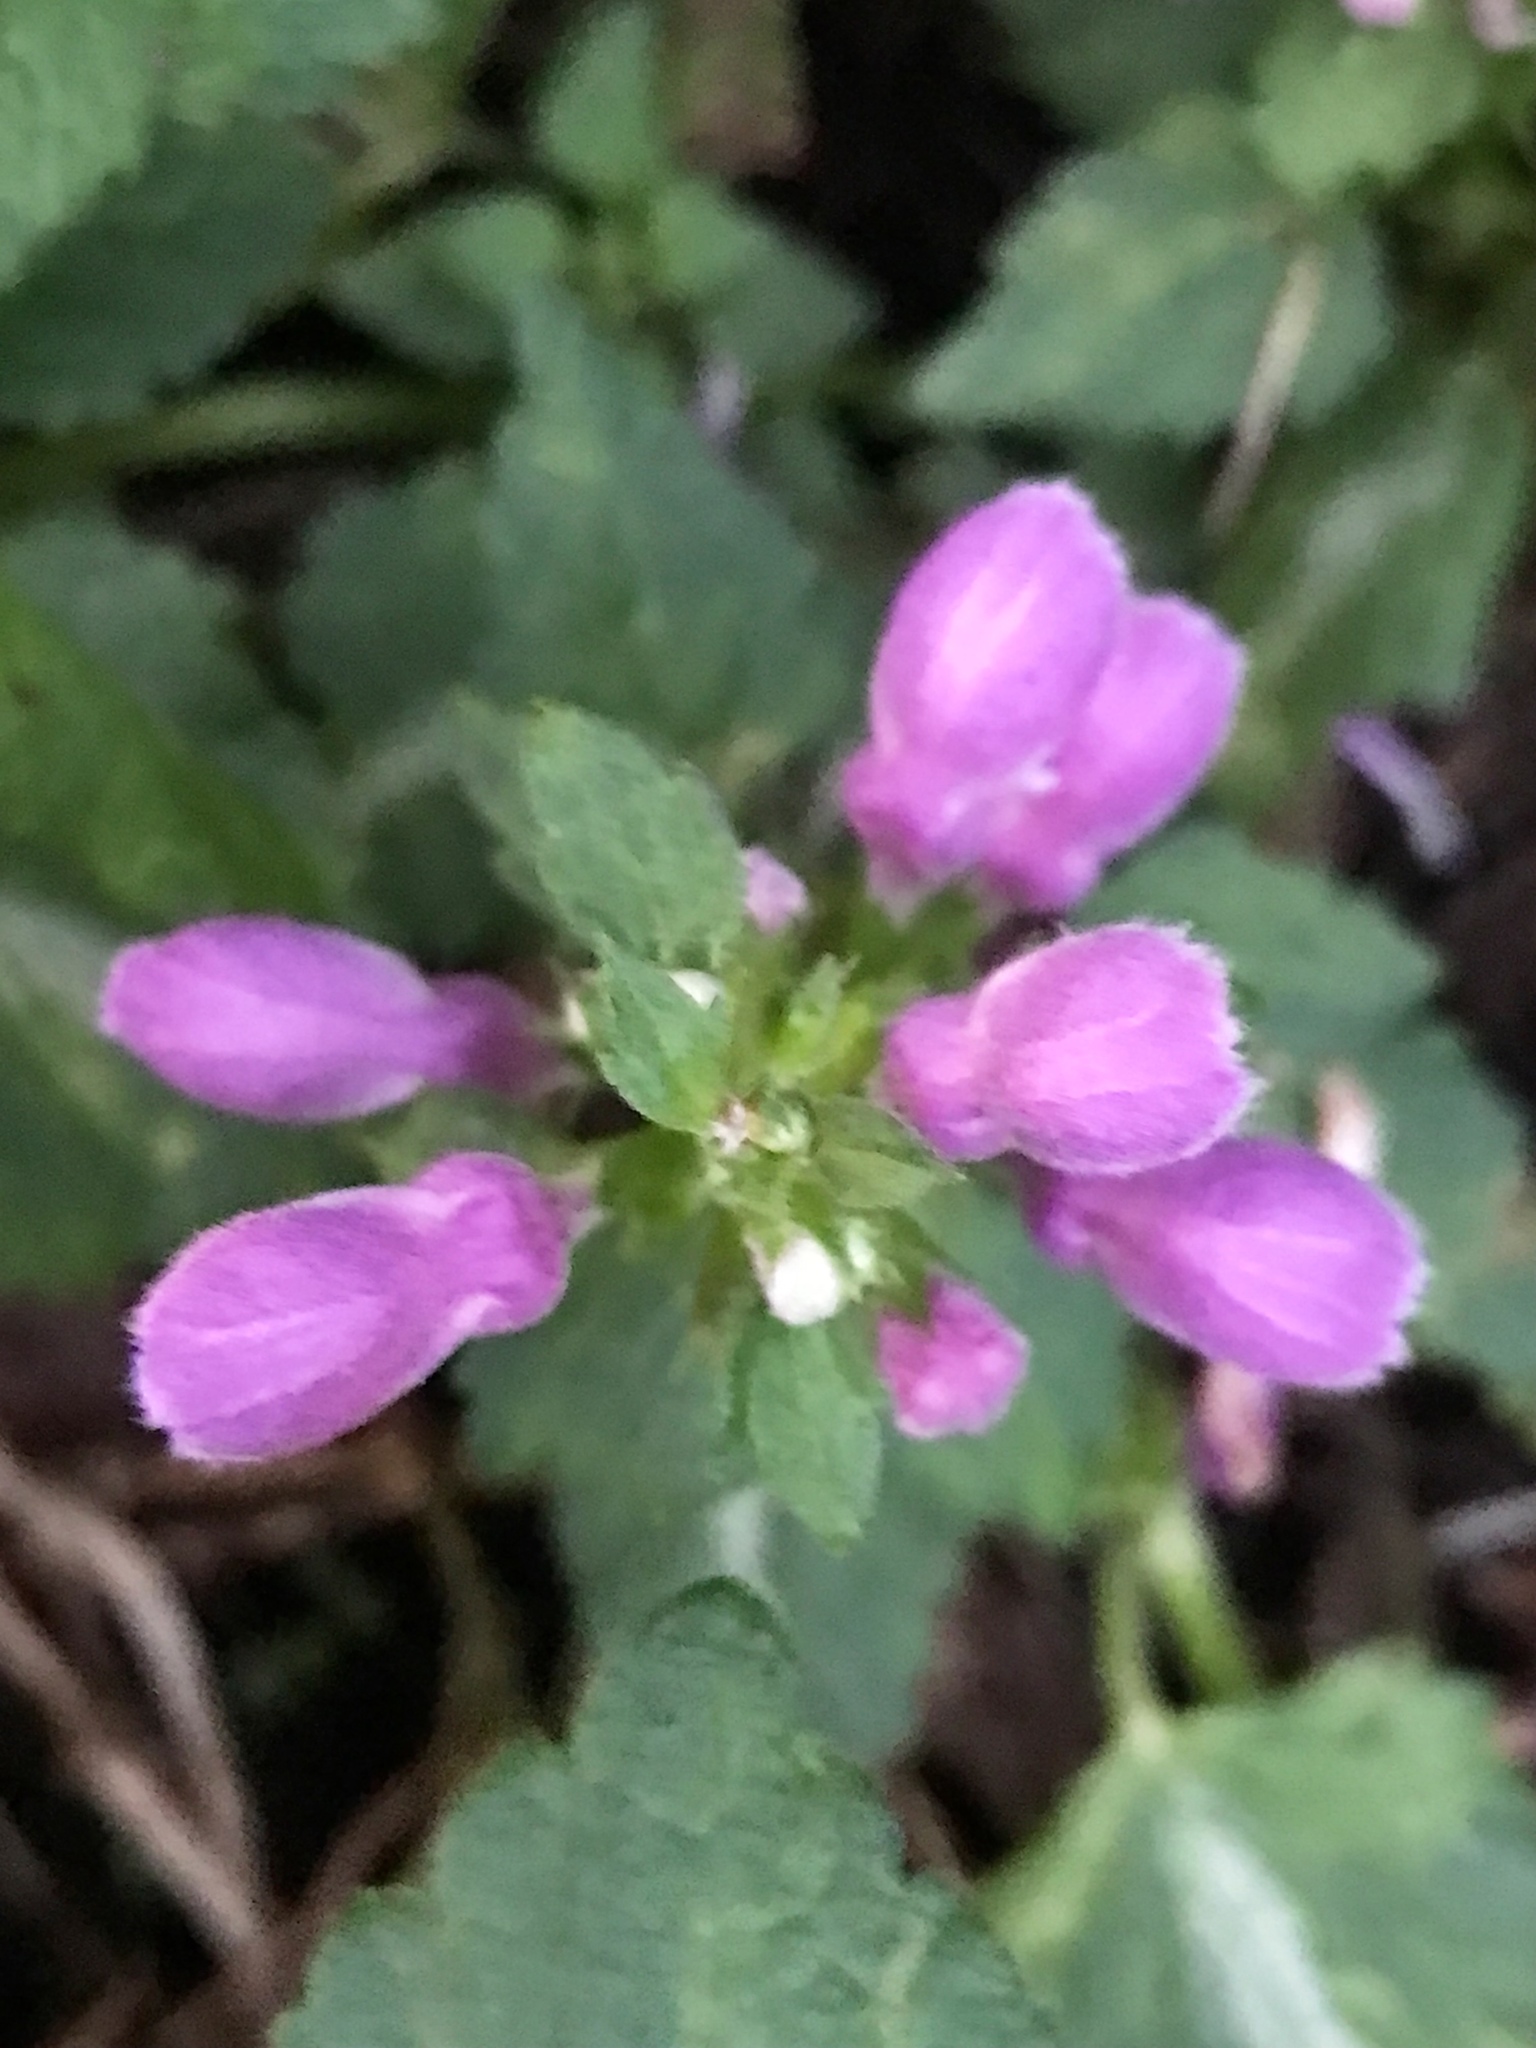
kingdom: Plantae
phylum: Tracheophyta
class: Magnoliopsida
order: Lamiales
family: Lamiaceae
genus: Lamium
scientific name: Lamium maculatum
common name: Spotted dead-nettle
